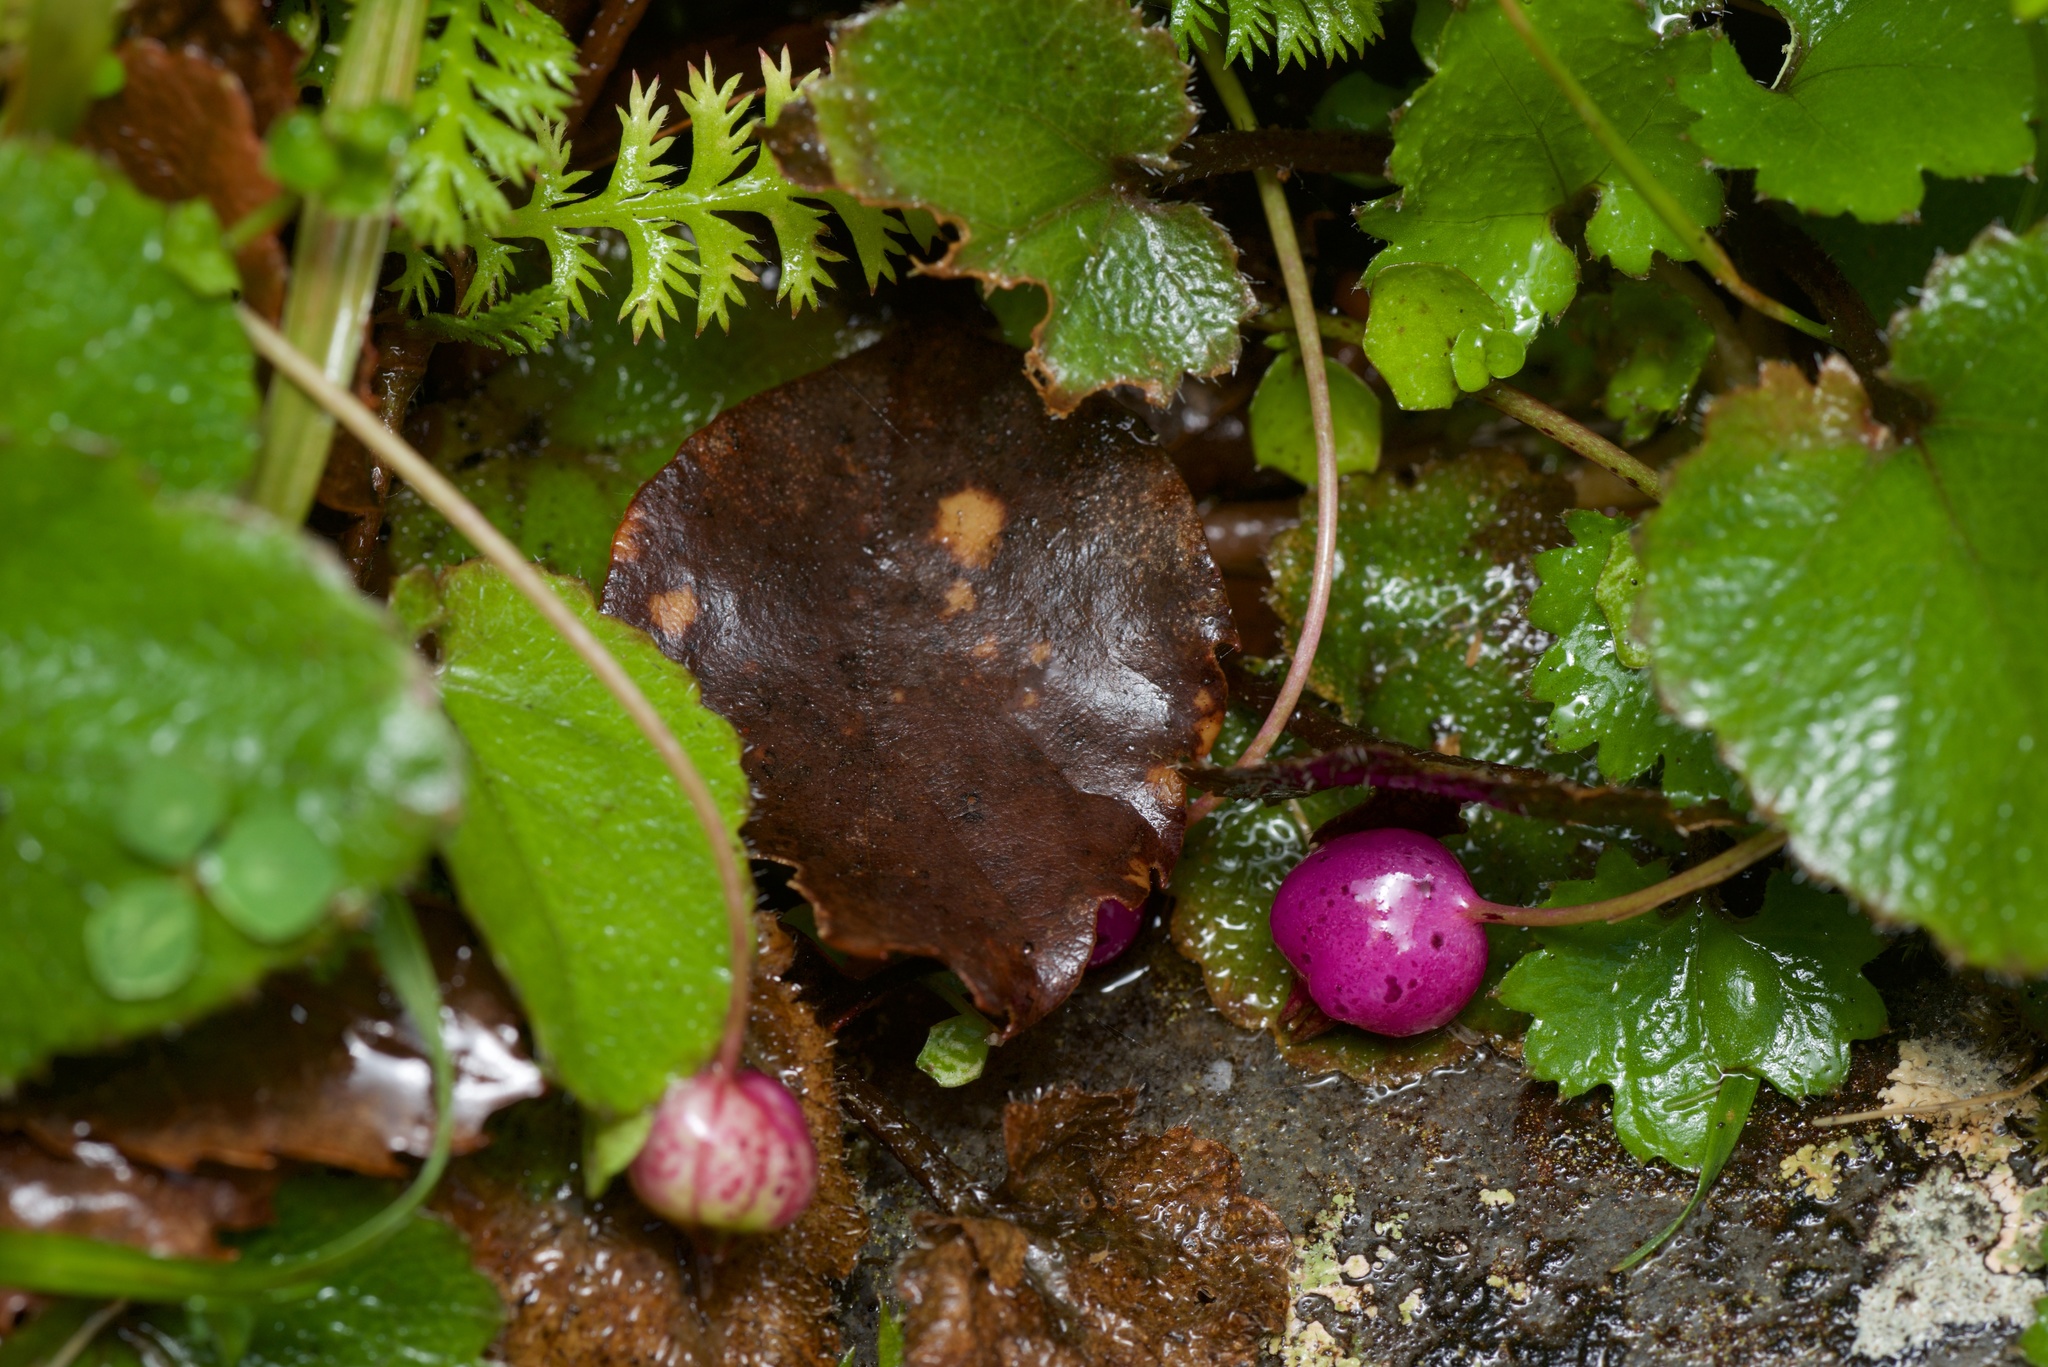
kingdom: Plantae
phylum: Tracheophyta
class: Magnoliopsida
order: Asterales
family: Campanulaceae
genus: Lobelia
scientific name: Lobelia angulata
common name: Lawn lobelia
